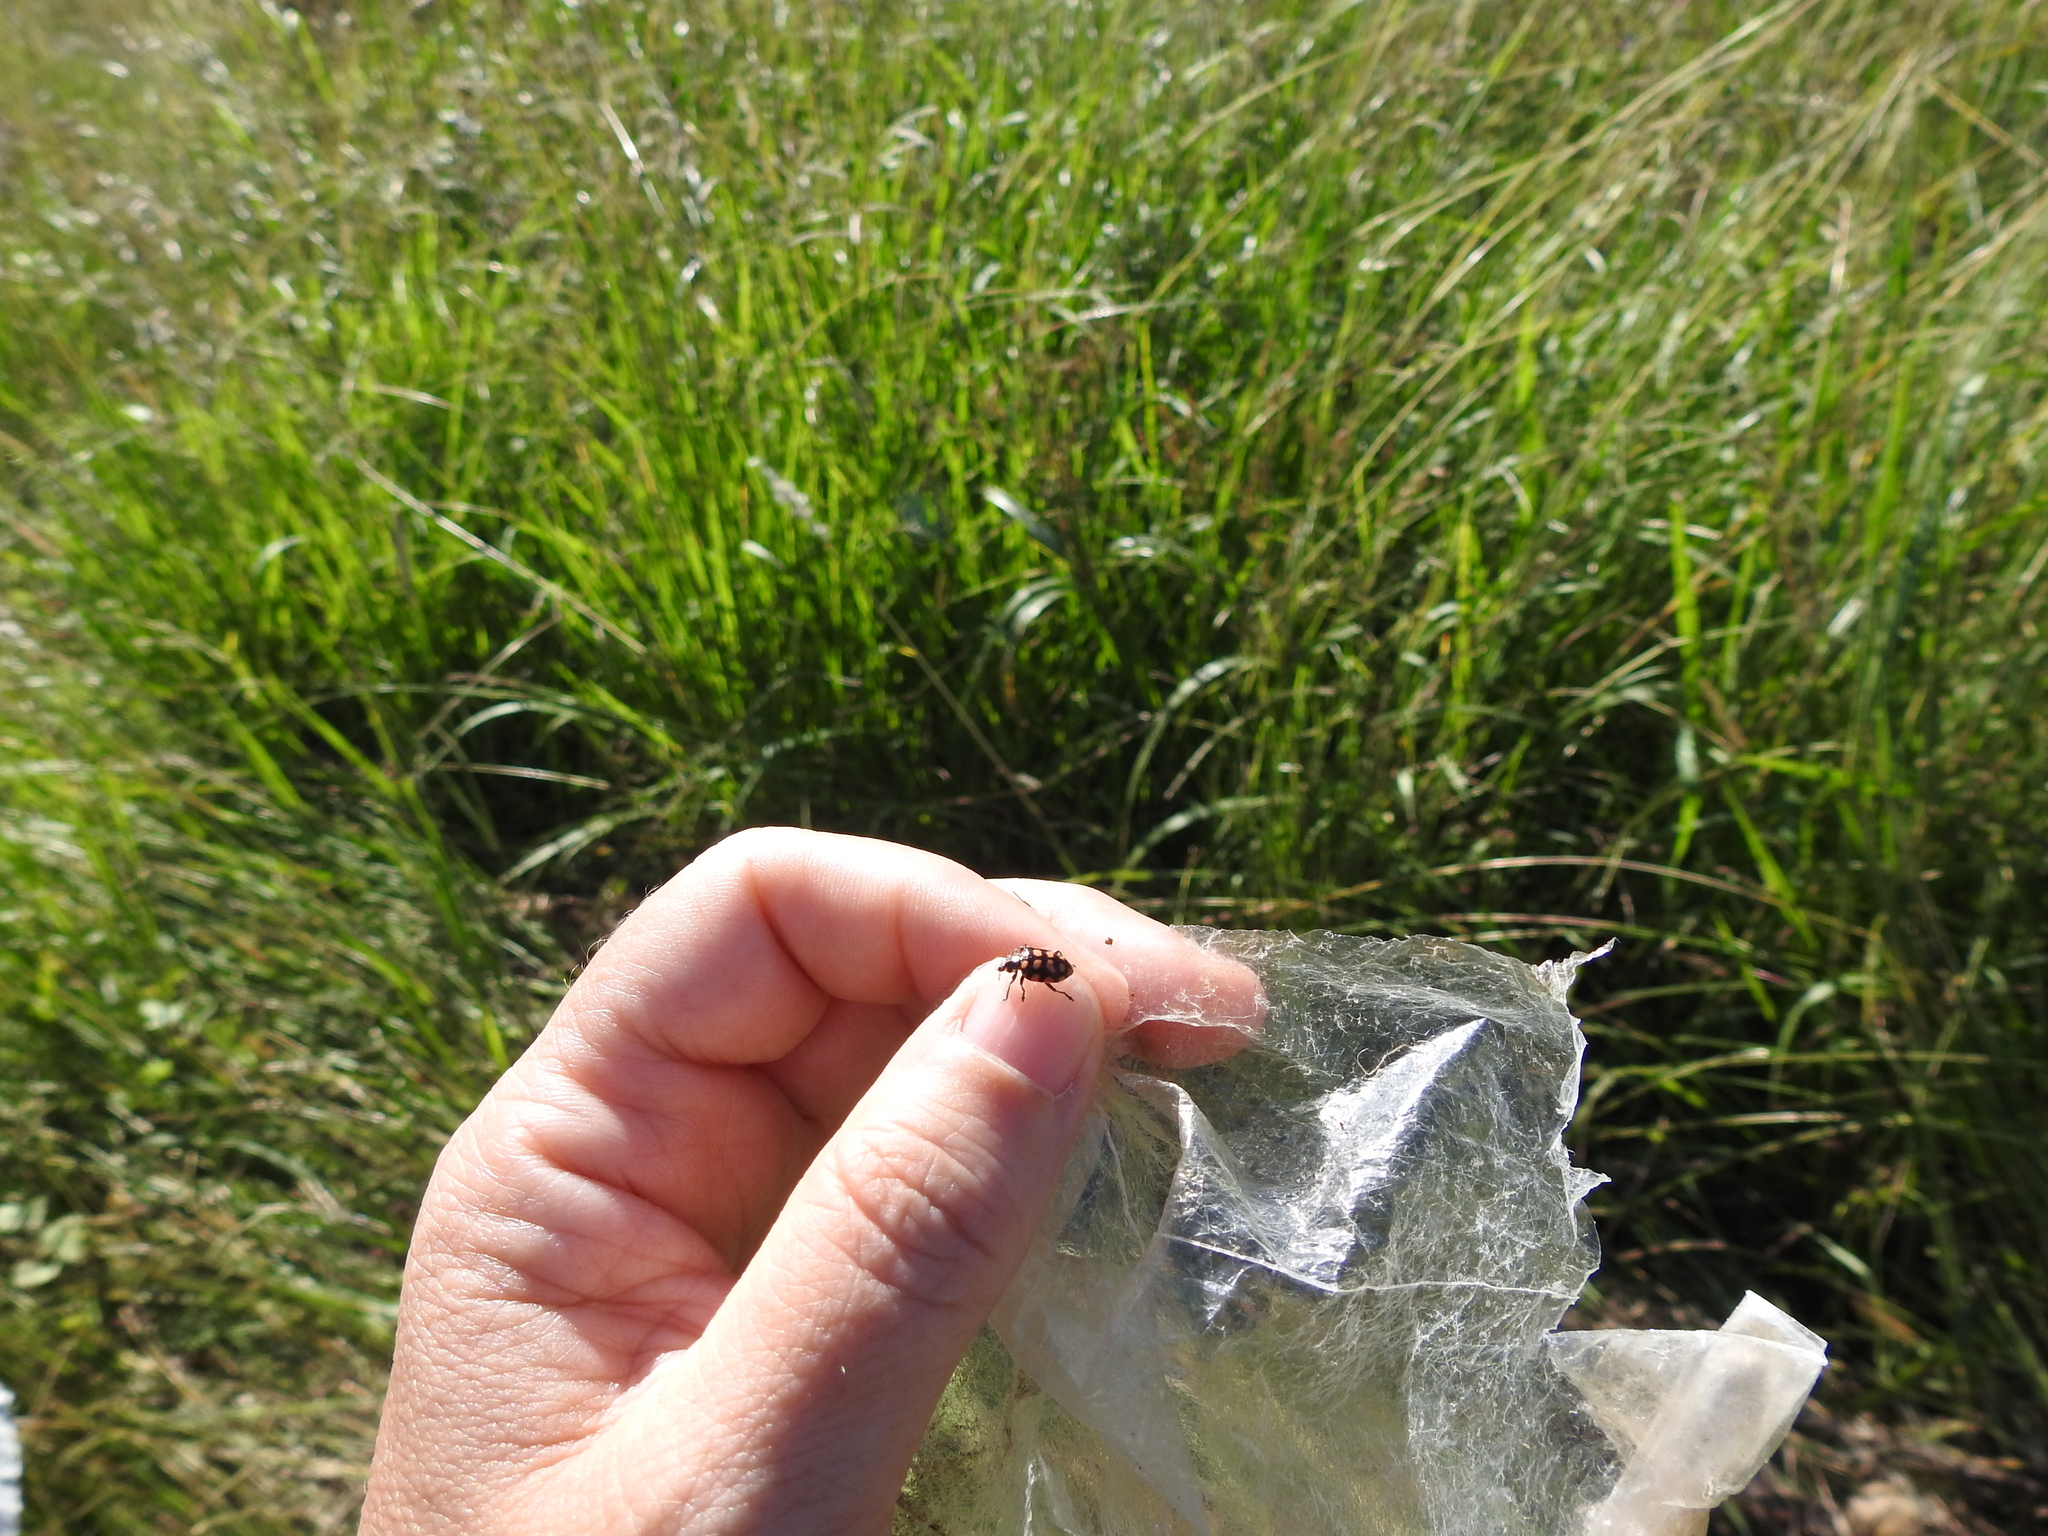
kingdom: Animalia
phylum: Arthropoda
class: Insecta
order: Coleoptera
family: Coccinellidae
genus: Coleomegilla
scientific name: Coleomegilla
